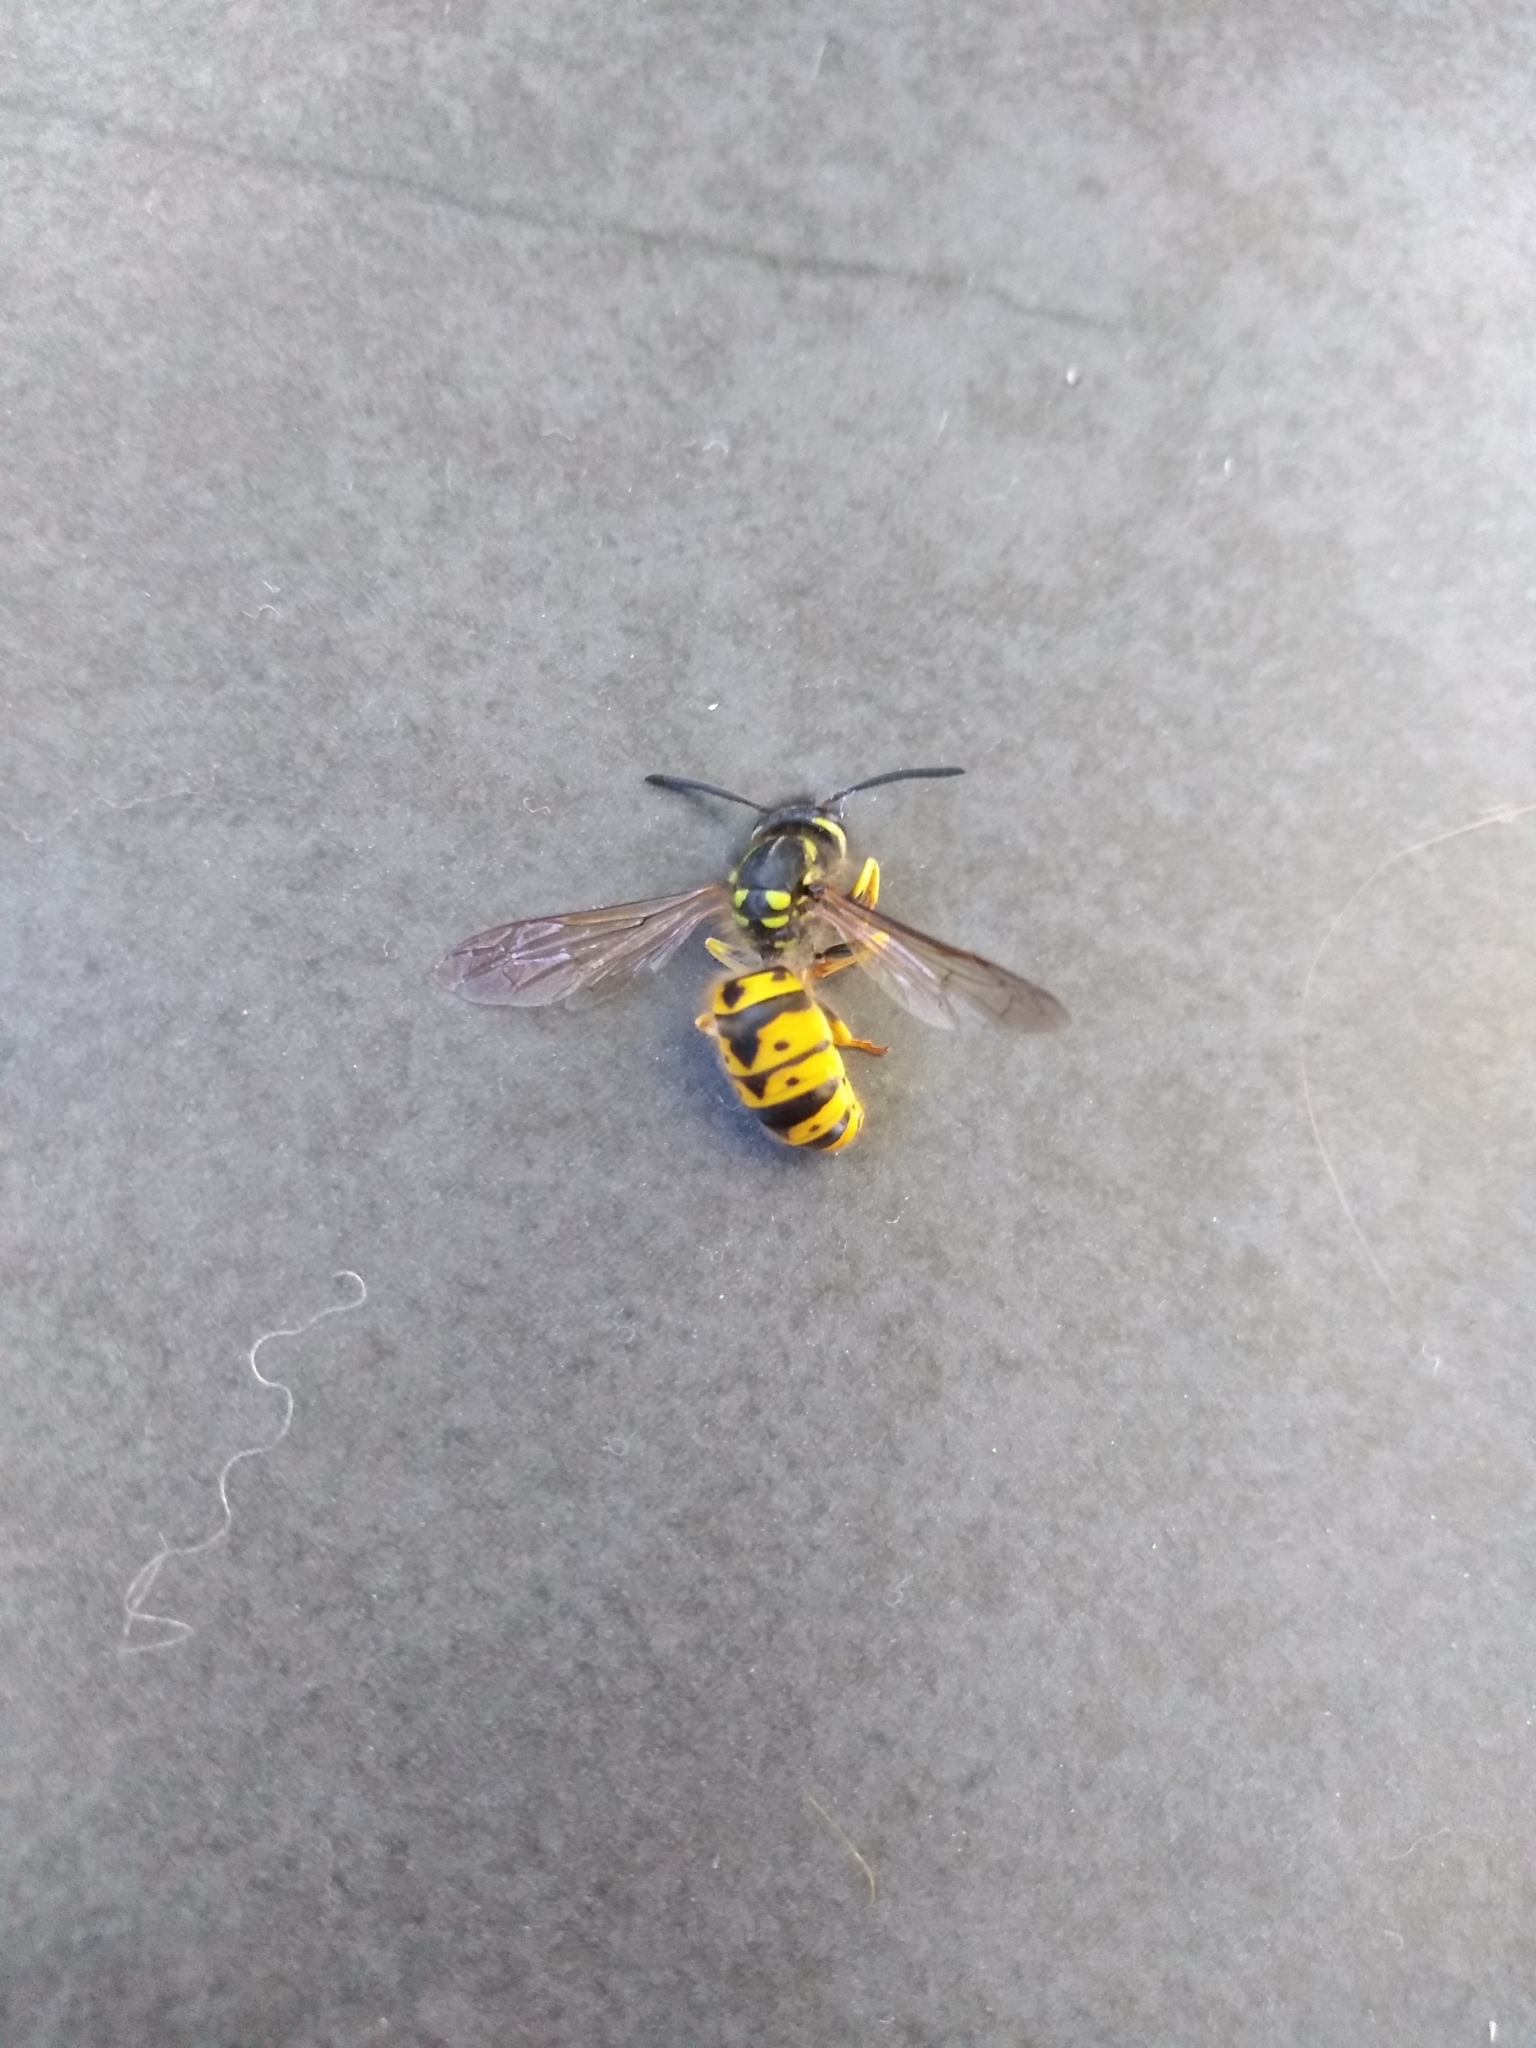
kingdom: Animalia
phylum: Arthropoda
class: Insecta
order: Hymenoptera
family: Vespidae
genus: Vespula
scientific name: Vespula germanica
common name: German wasp
